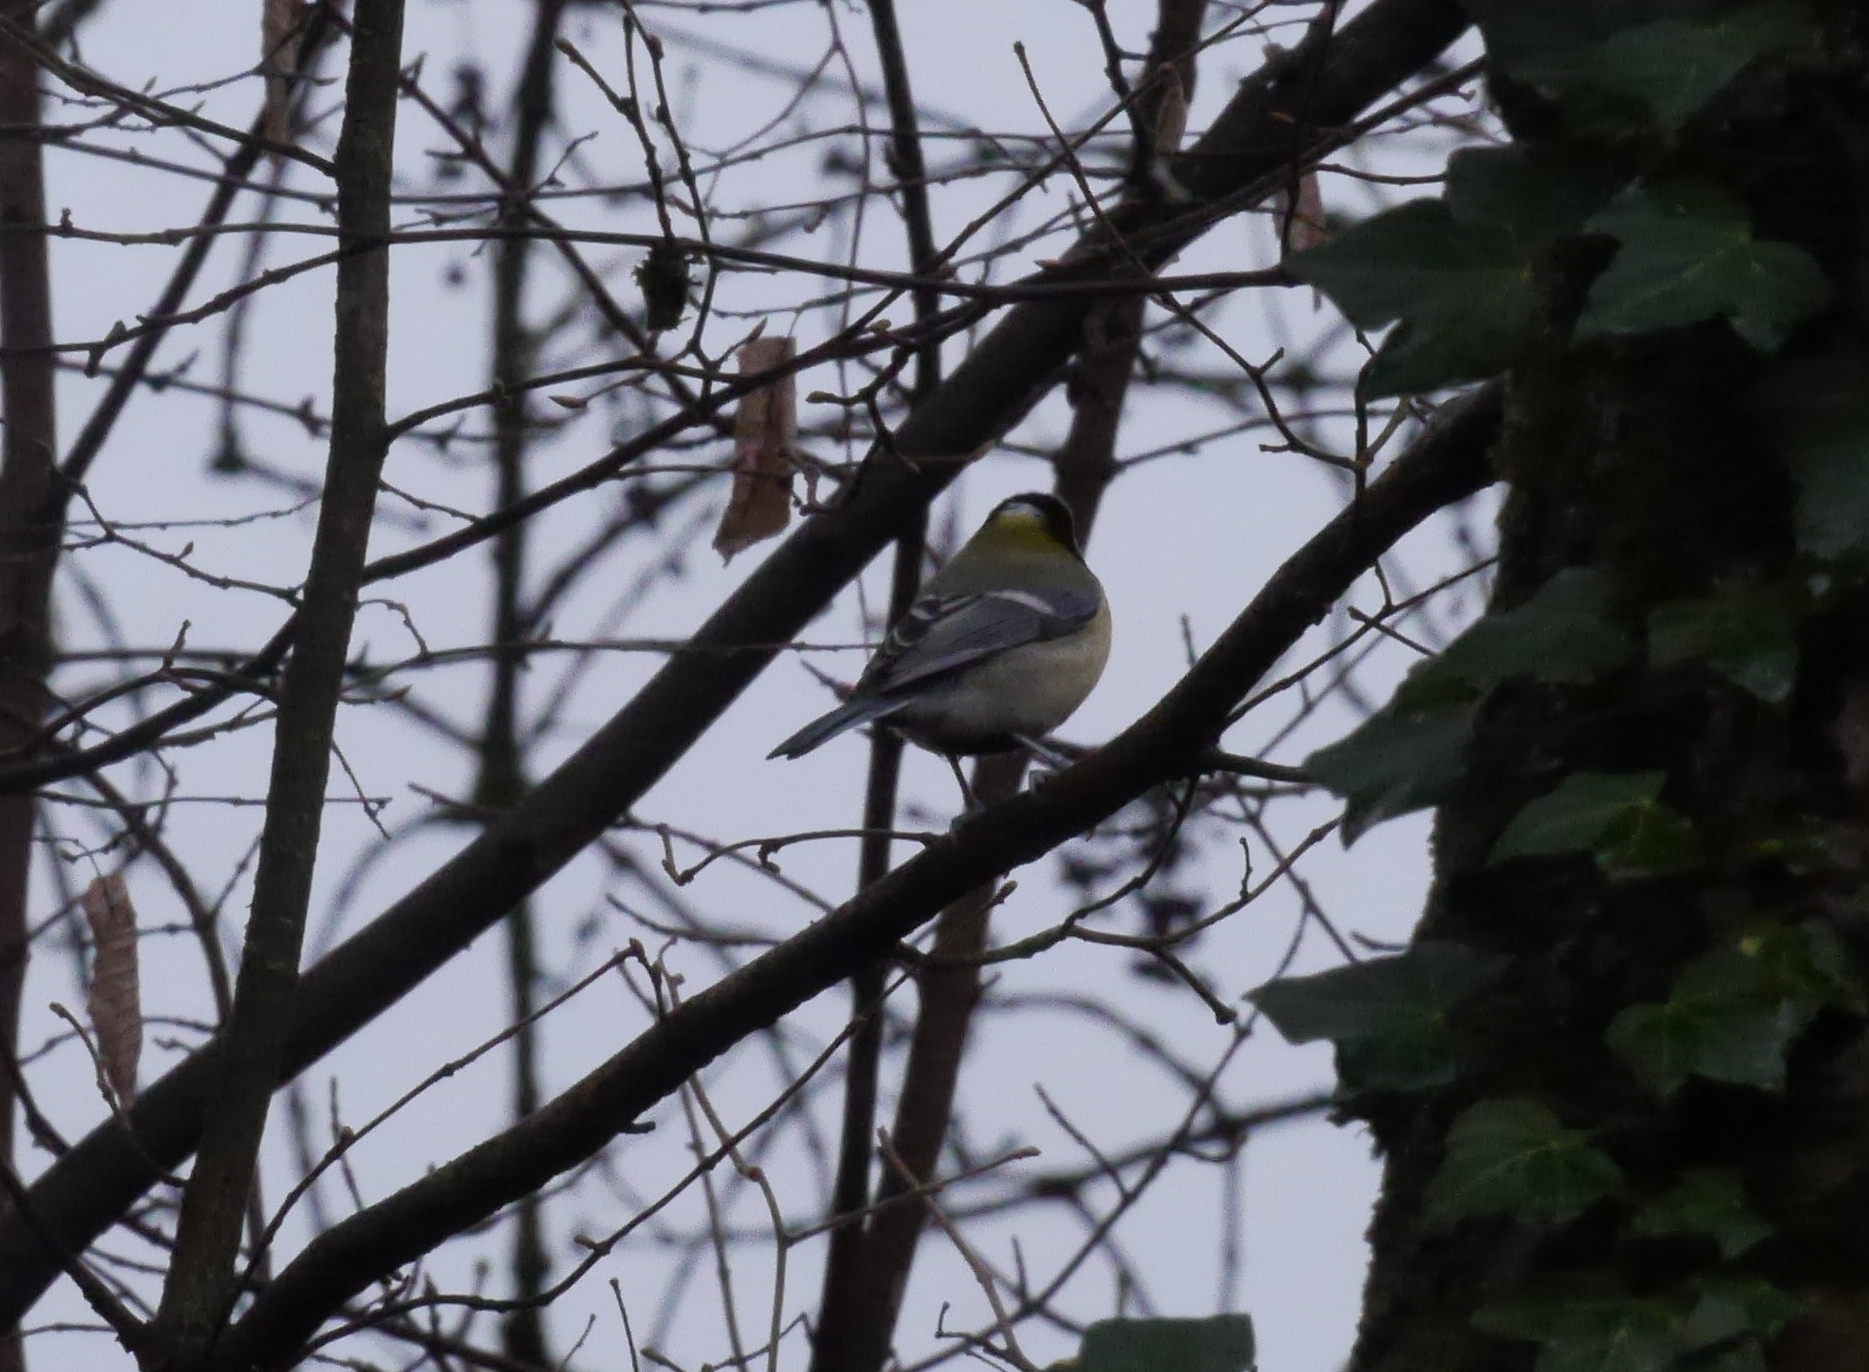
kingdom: Animalia
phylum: Chordata
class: Aves
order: Passeriformes
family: Paridae
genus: Parus
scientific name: Parus major
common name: Great tit
